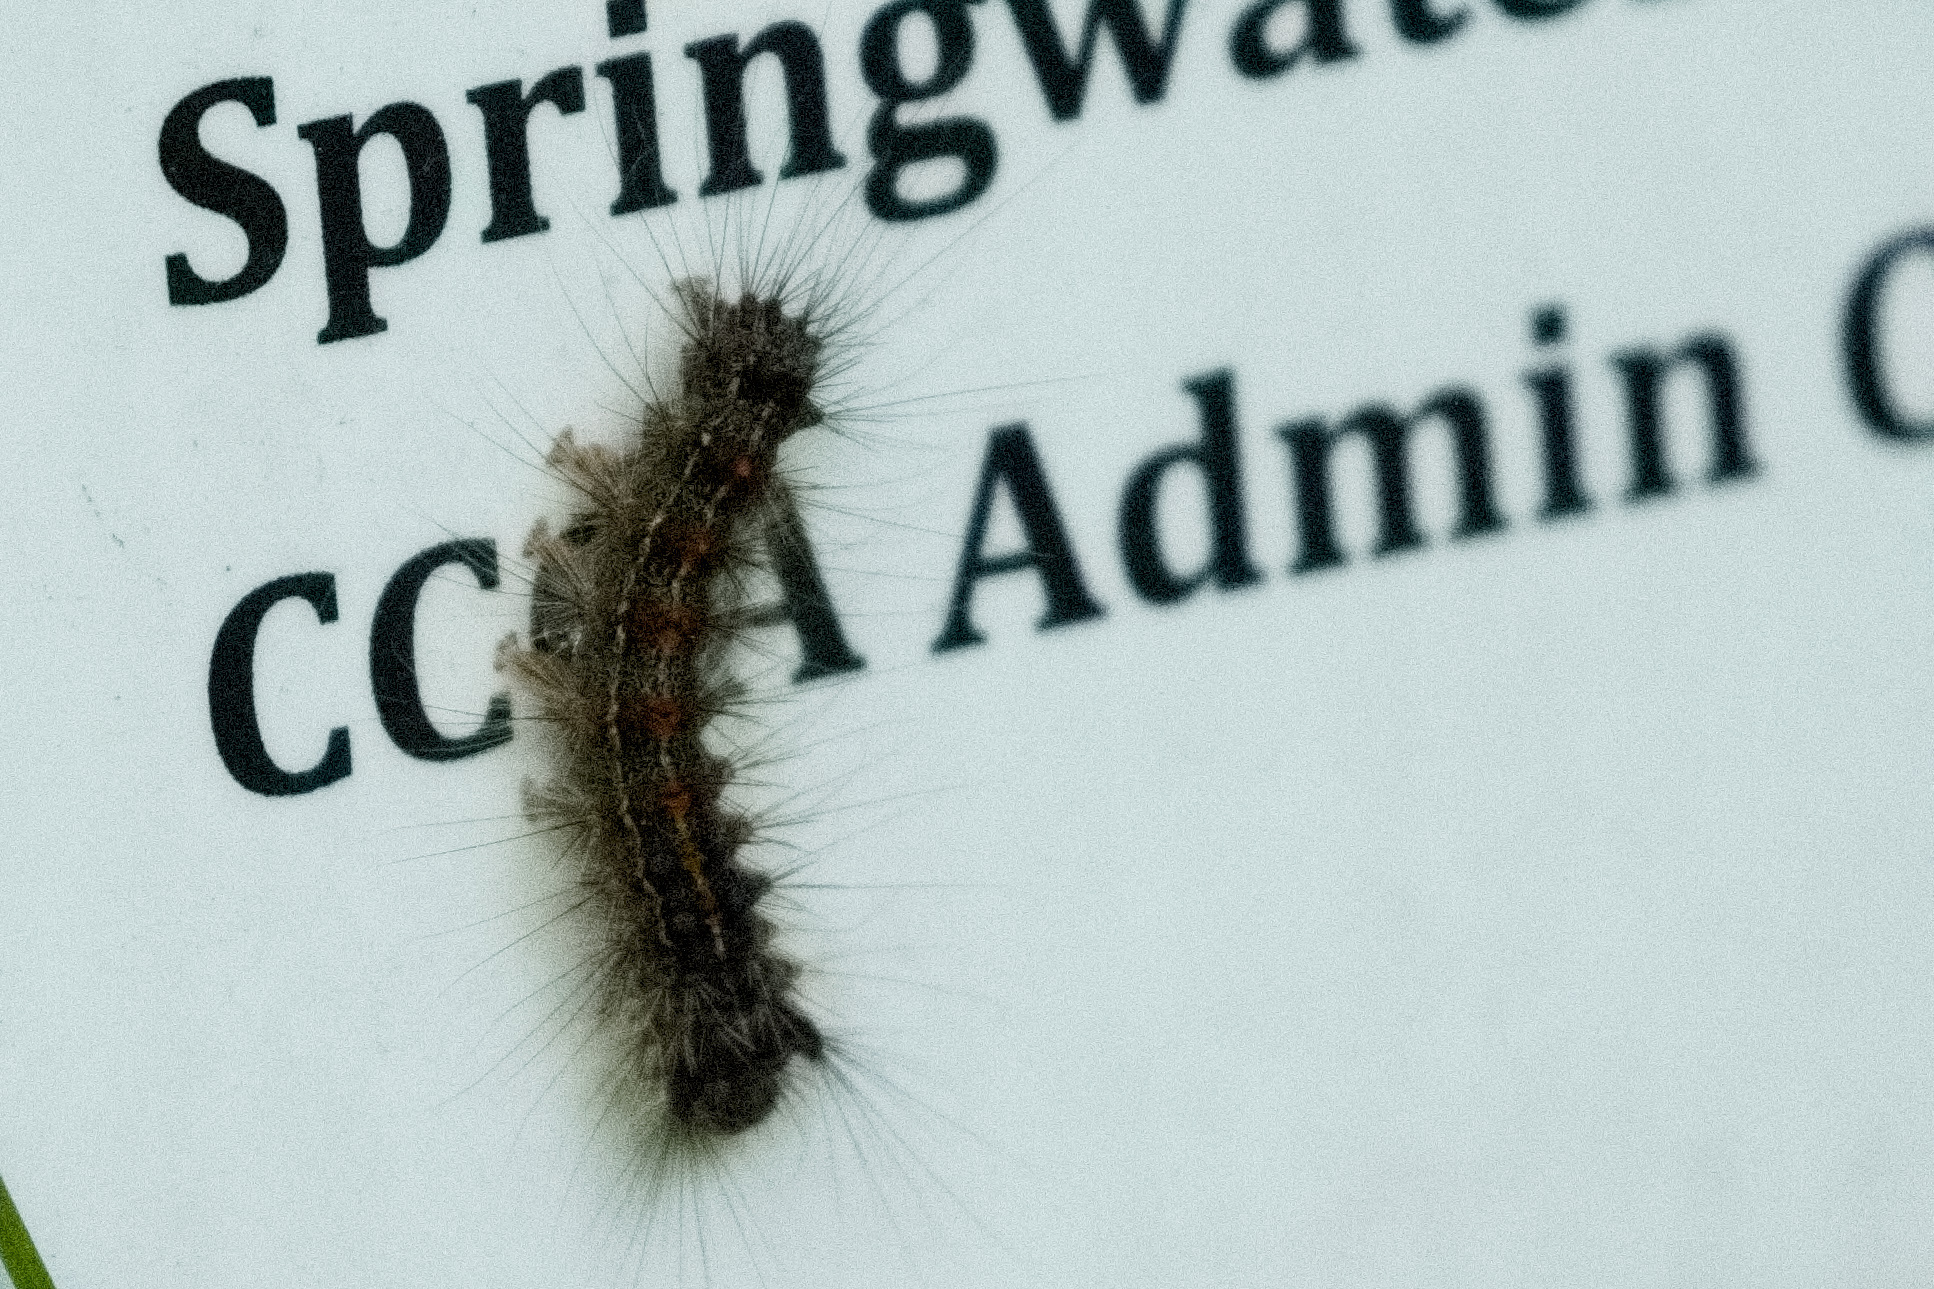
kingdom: Animalia
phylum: Arthropoda
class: Insecta
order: Lepidoptera
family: Erebidae
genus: Lymantria
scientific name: Lymantria dispar
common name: Gypsy moth
